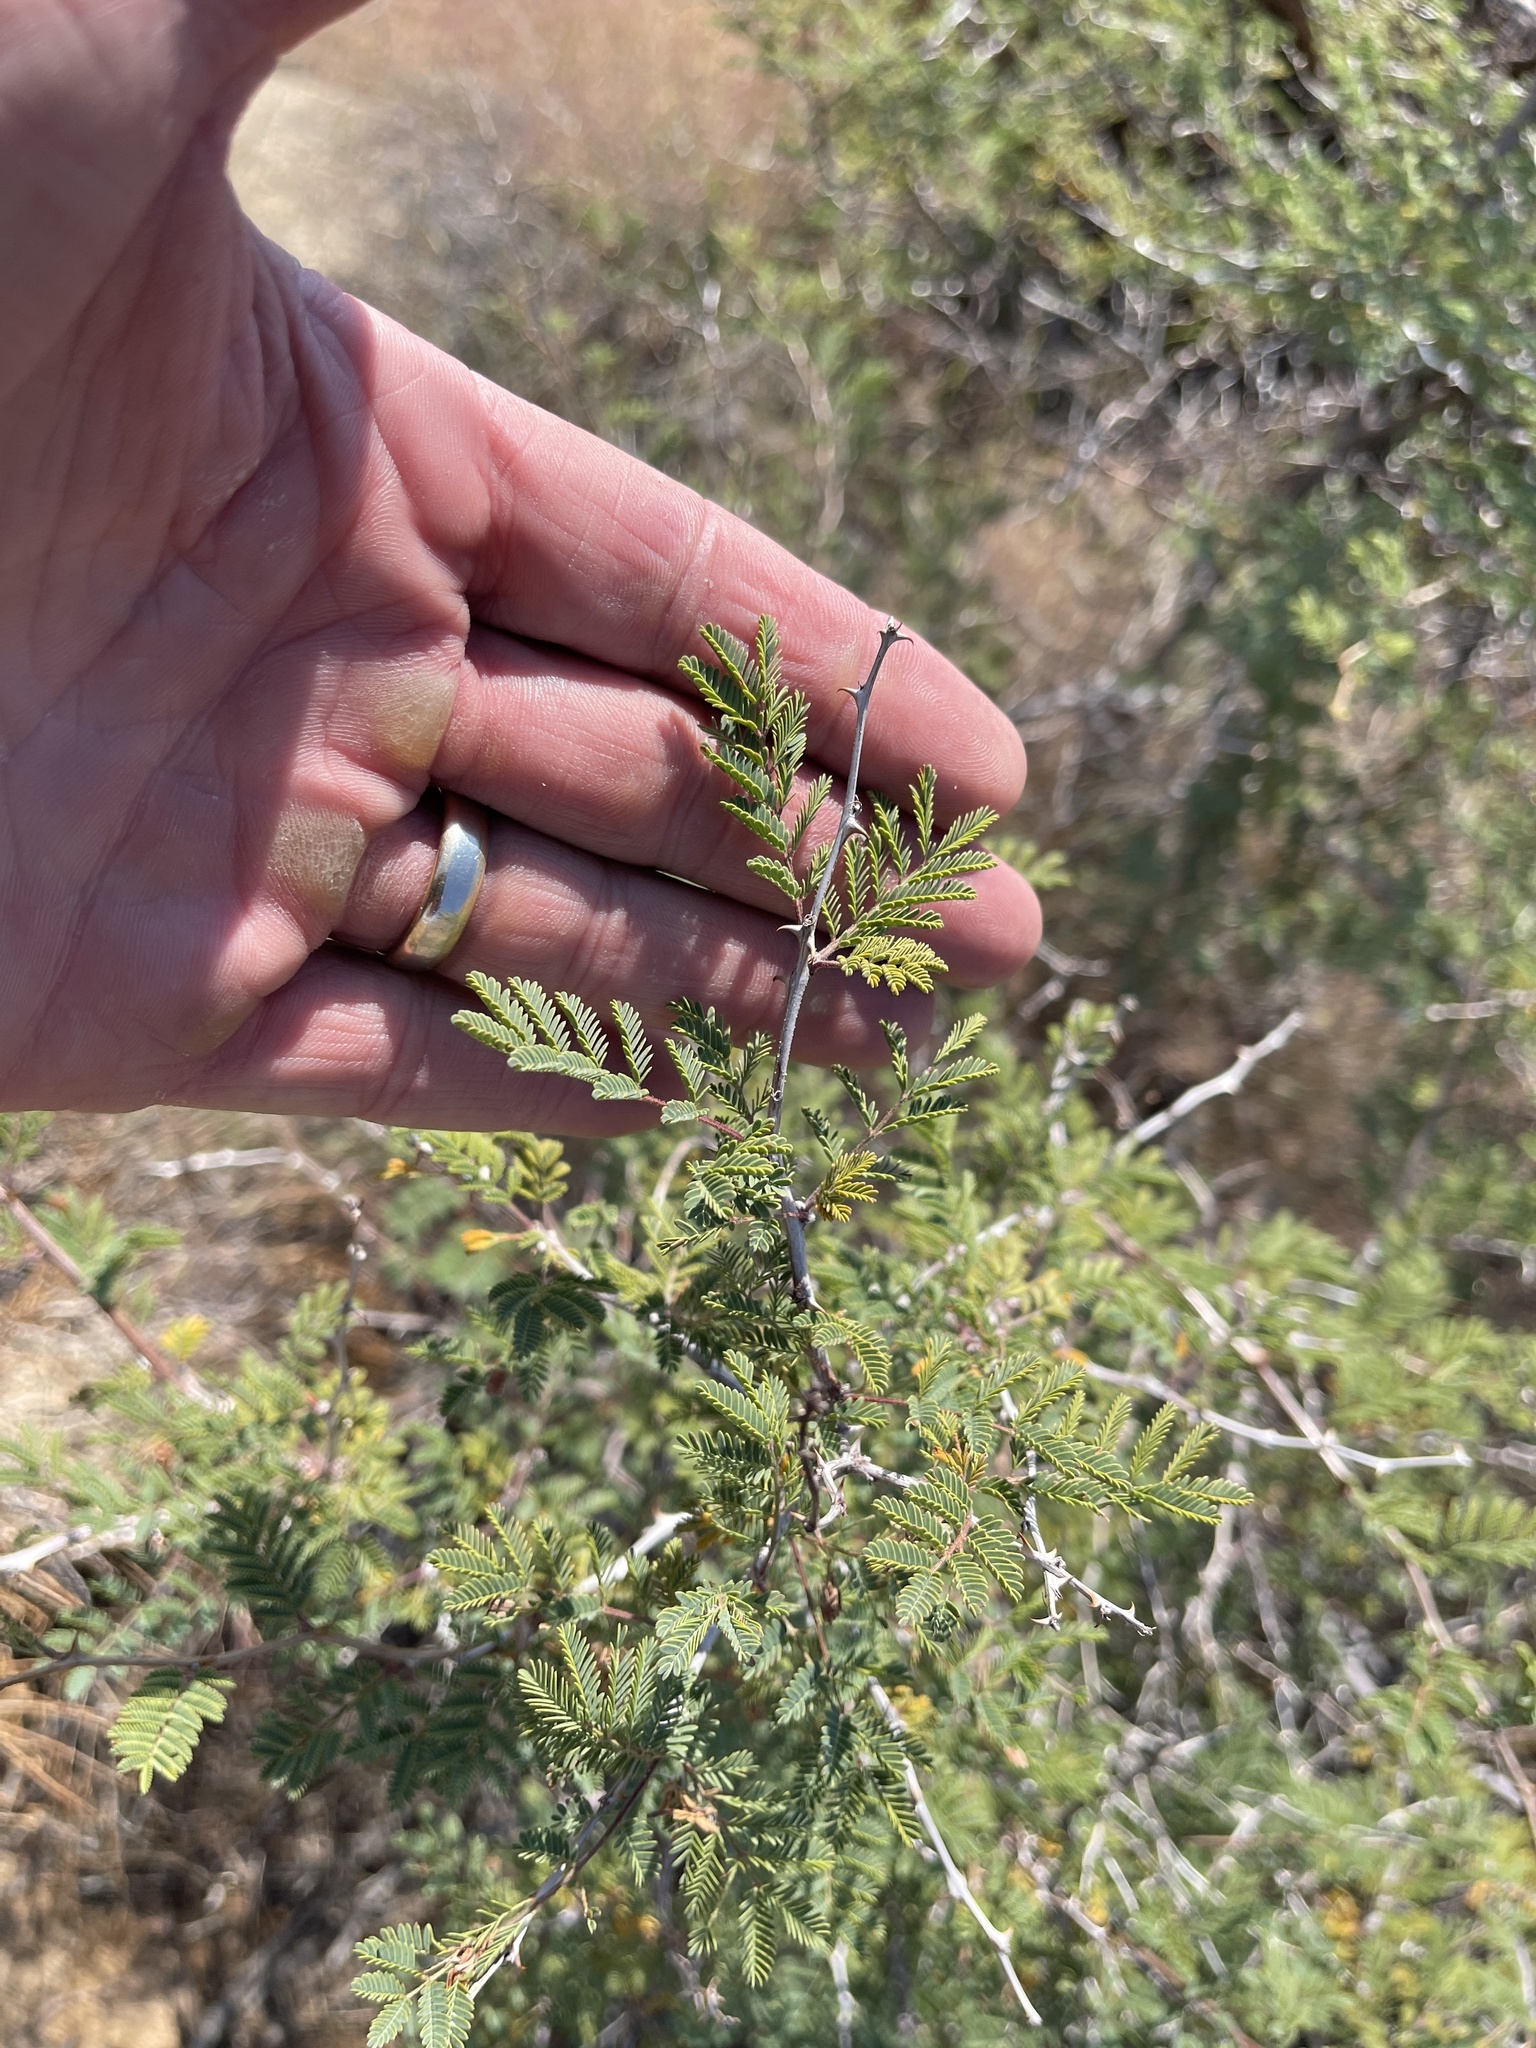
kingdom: Plantae
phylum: Tracheophyta
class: Magnoliopsida
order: Fabales
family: Fabaceae
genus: Senegalia
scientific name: Senegalia greggii
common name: Texas-mimosa
